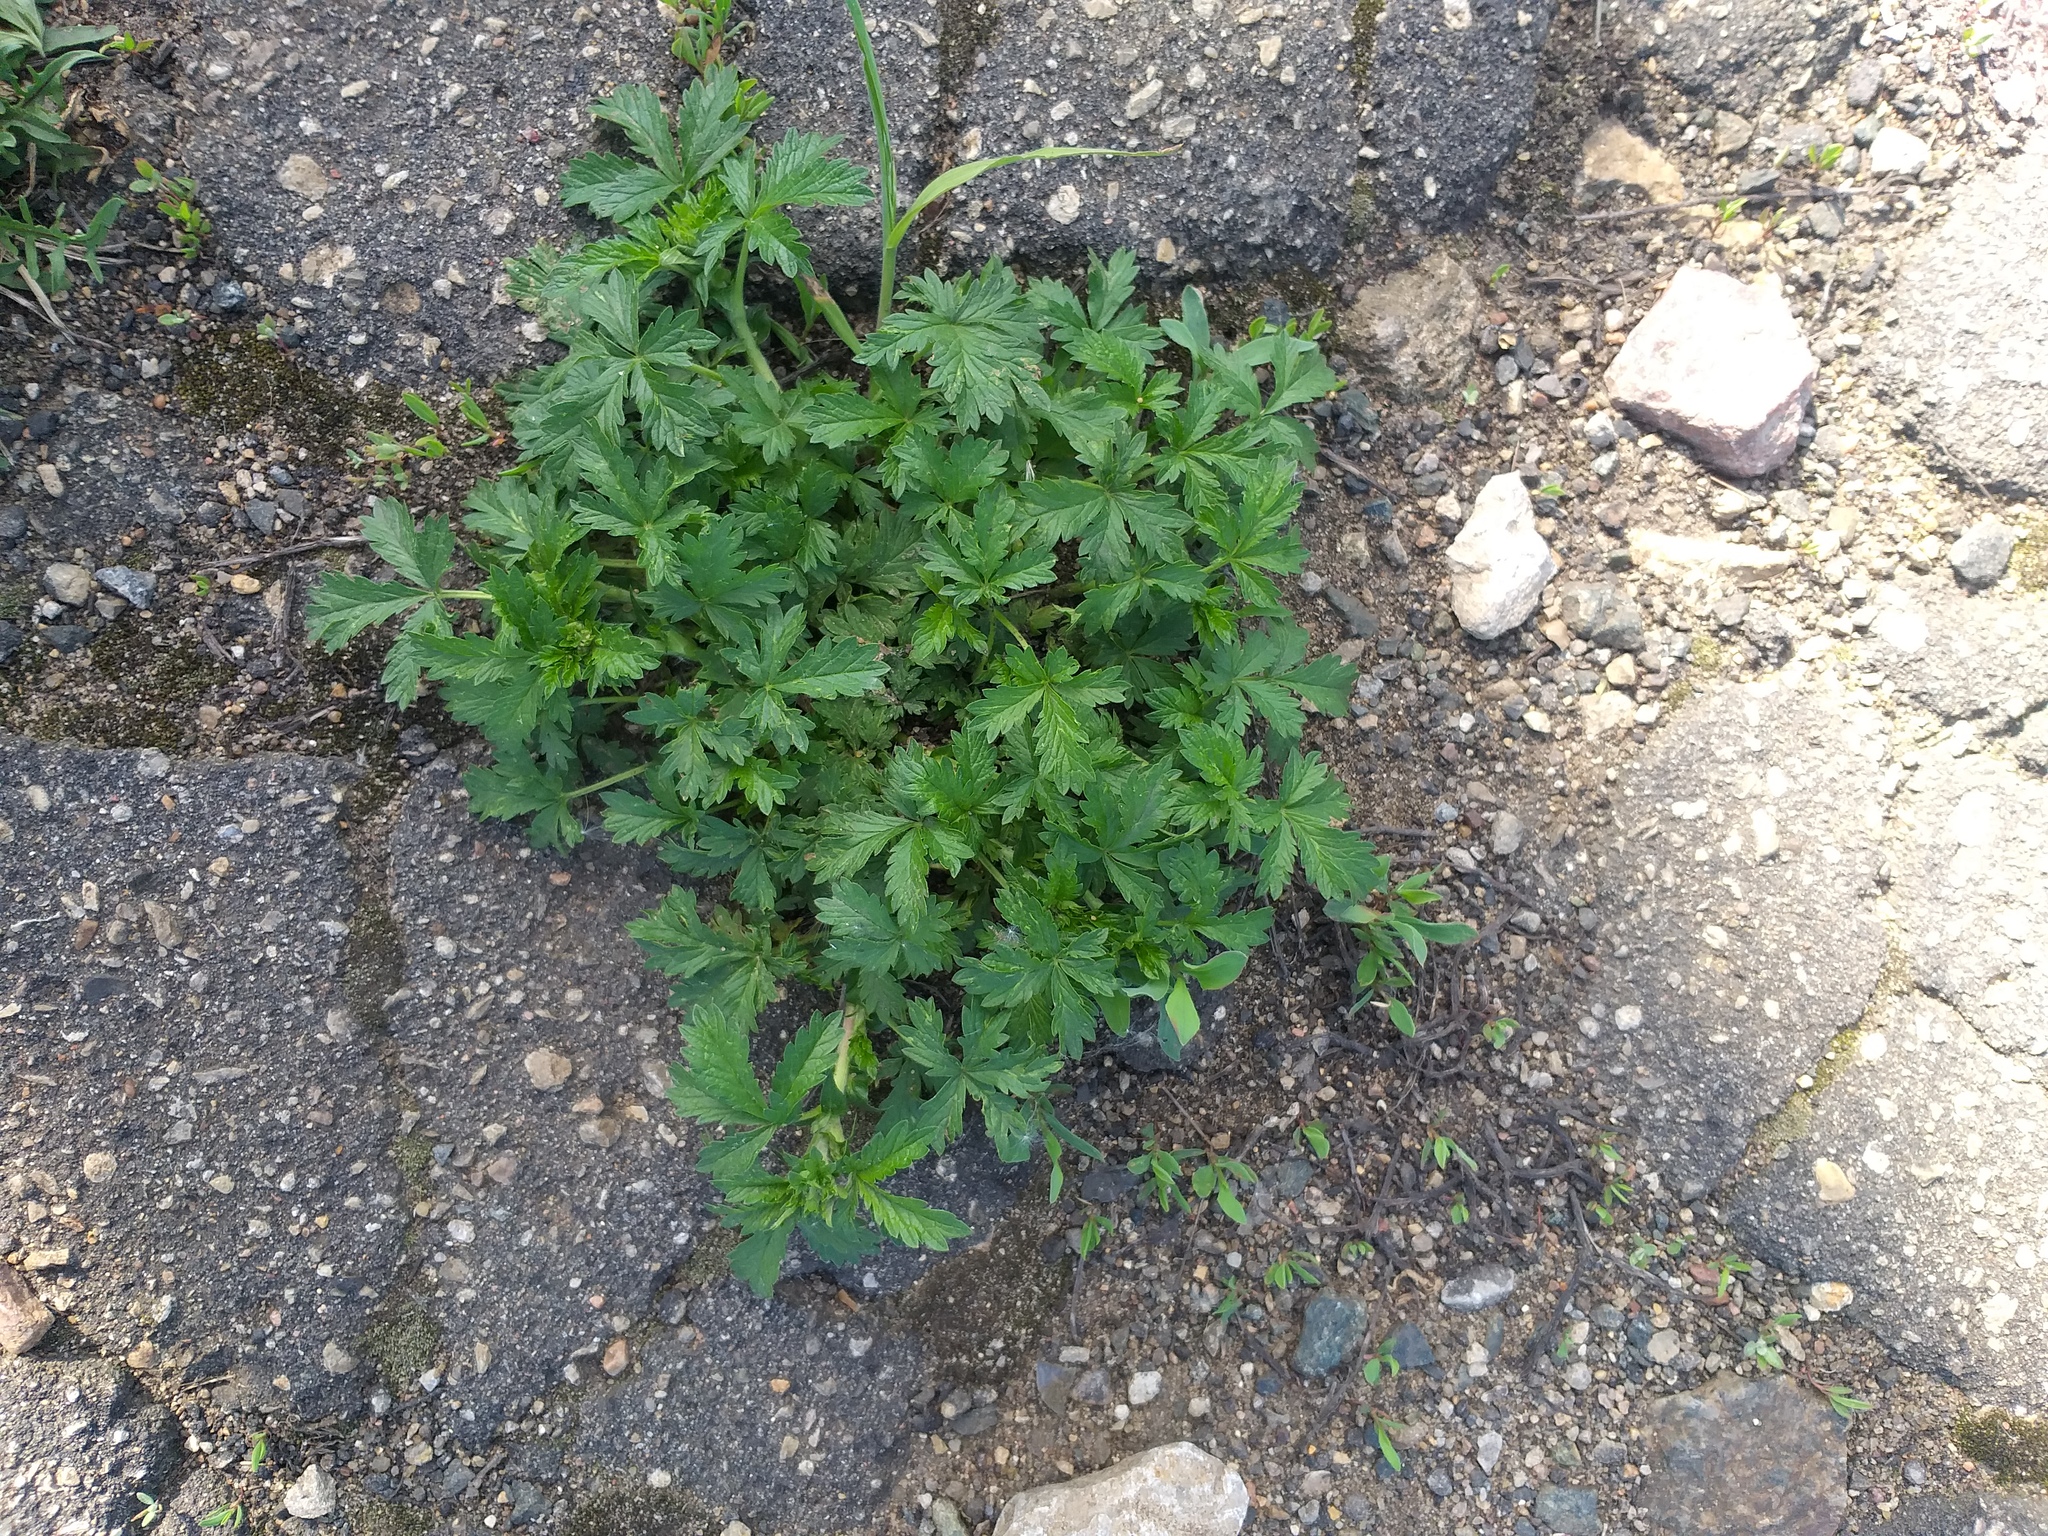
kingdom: Plantae
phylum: Tracheophyta
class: Magnoliopsida
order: Rosales
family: Rosaceae
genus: Potentilla
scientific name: Potentilla intermedia
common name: Downy cinquefoil
